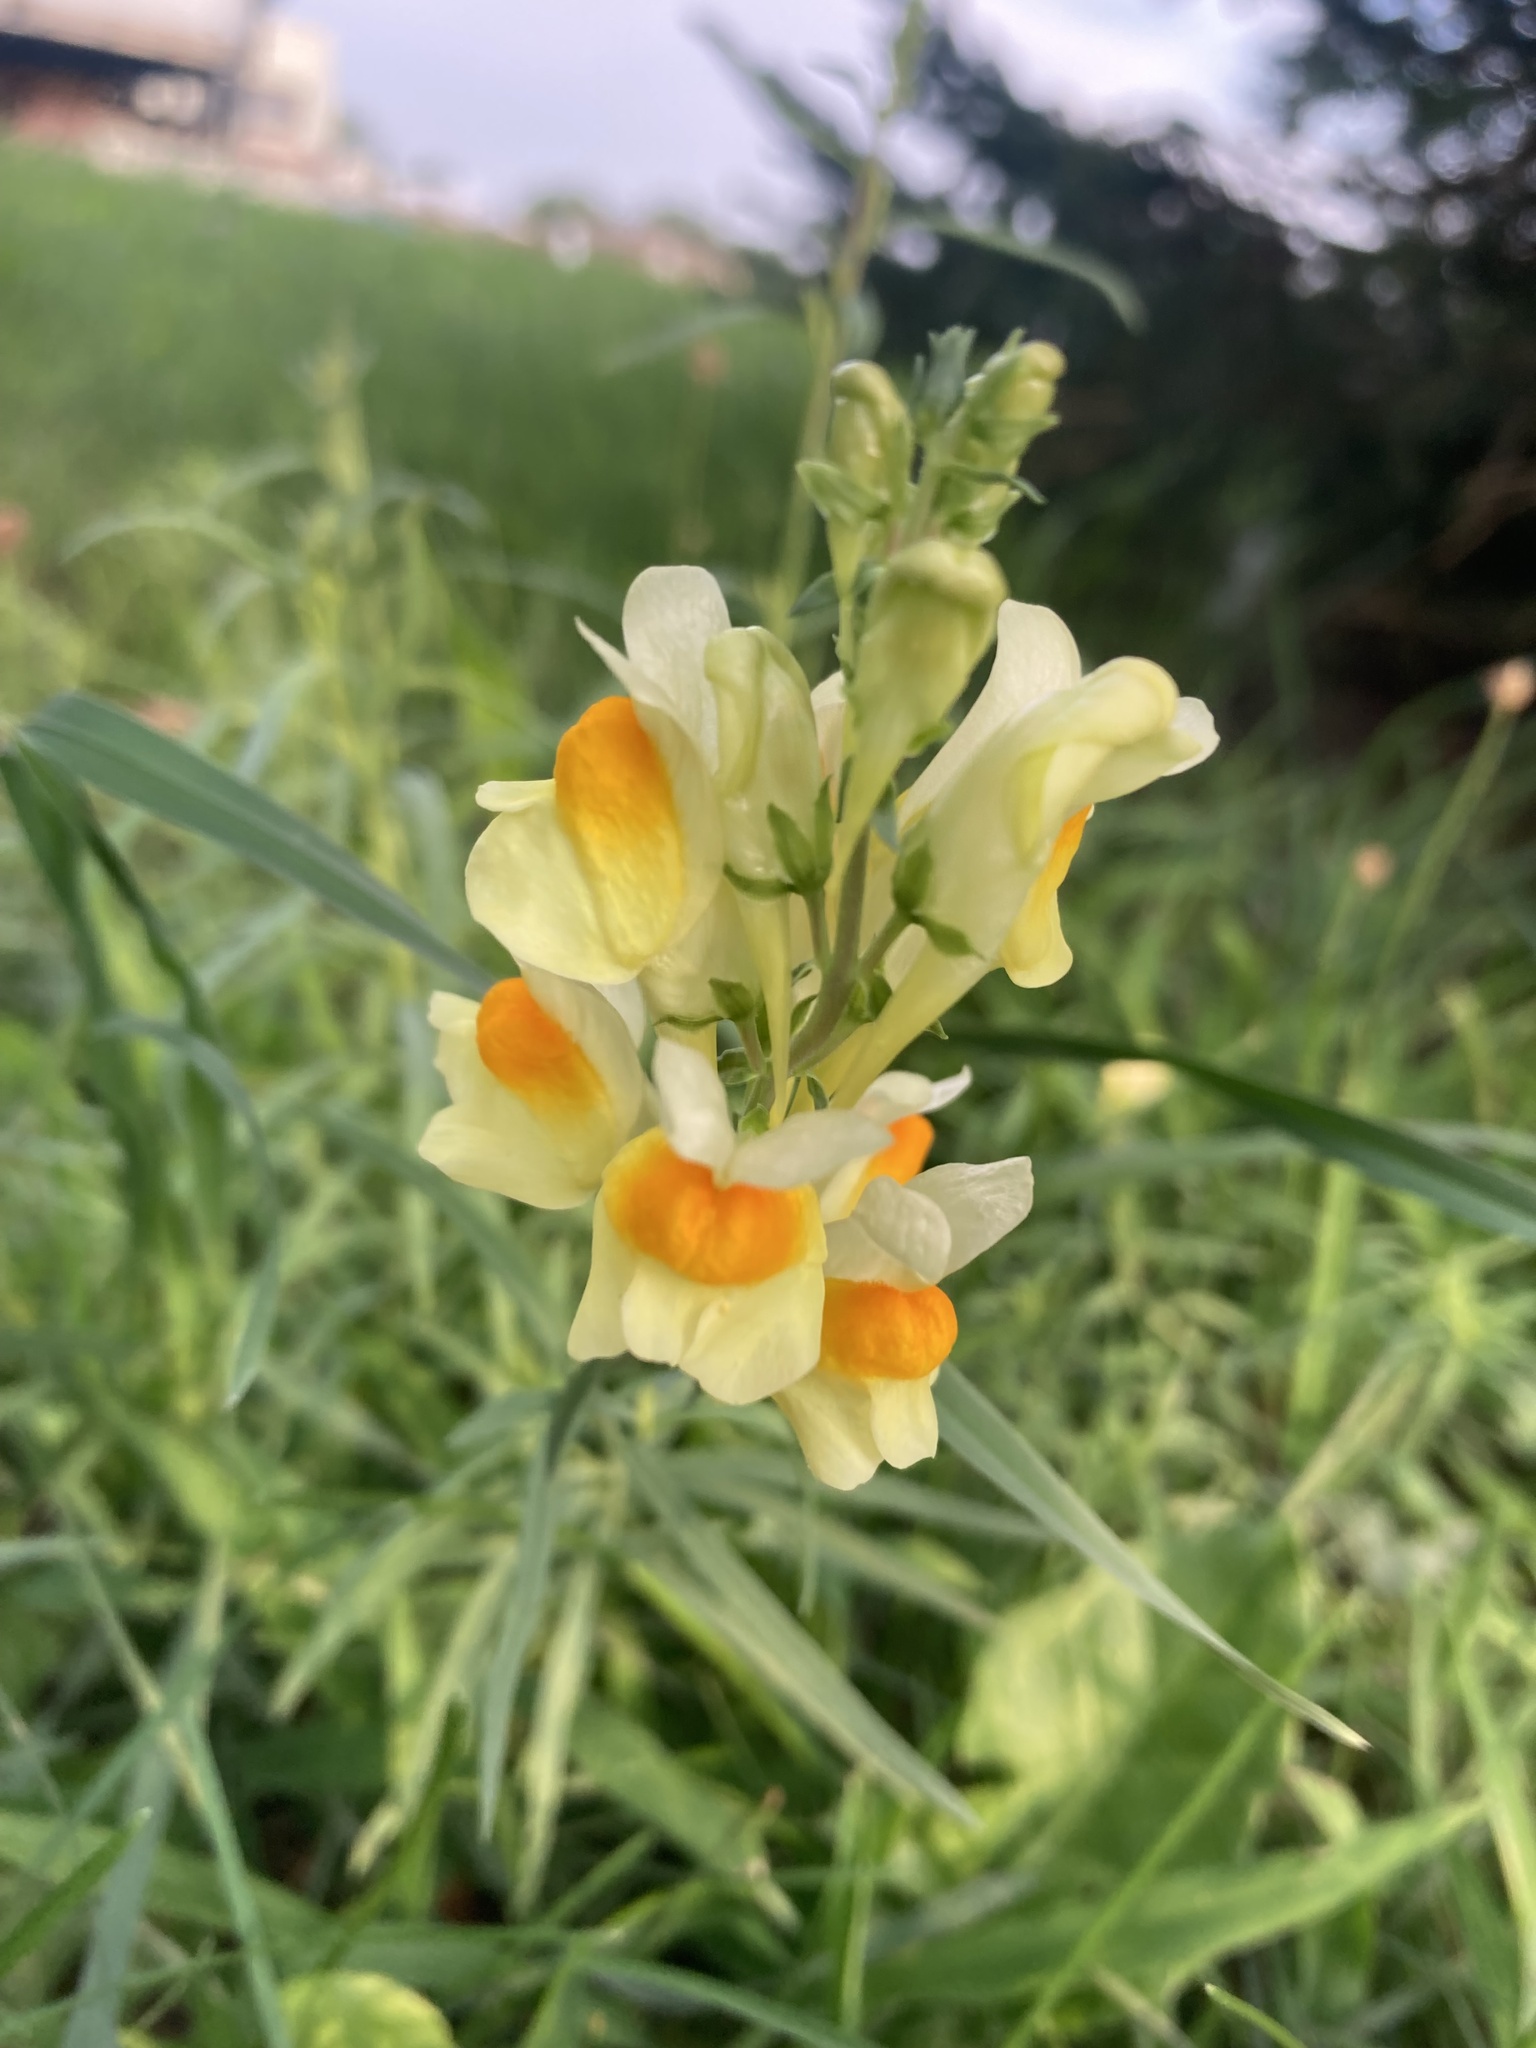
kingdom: Plantae
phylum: Tracheophyta
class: Magnoliopsida
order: Lamiales
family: Plantaginaceae
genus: Linaria
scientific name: Linaria vulgaris
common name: Butter and eggs
